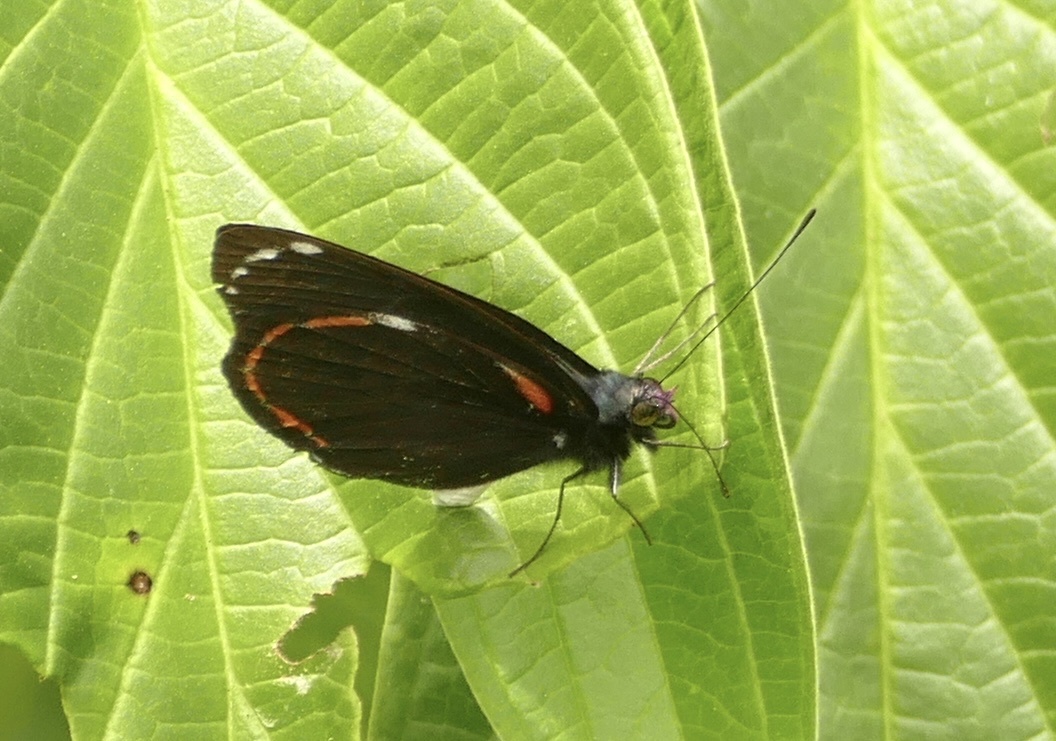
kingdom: Animalia
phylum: Arthropoda
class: Insecta
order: Lepidoptera
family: Pieridae
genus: Delias
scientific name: Delias caroli
